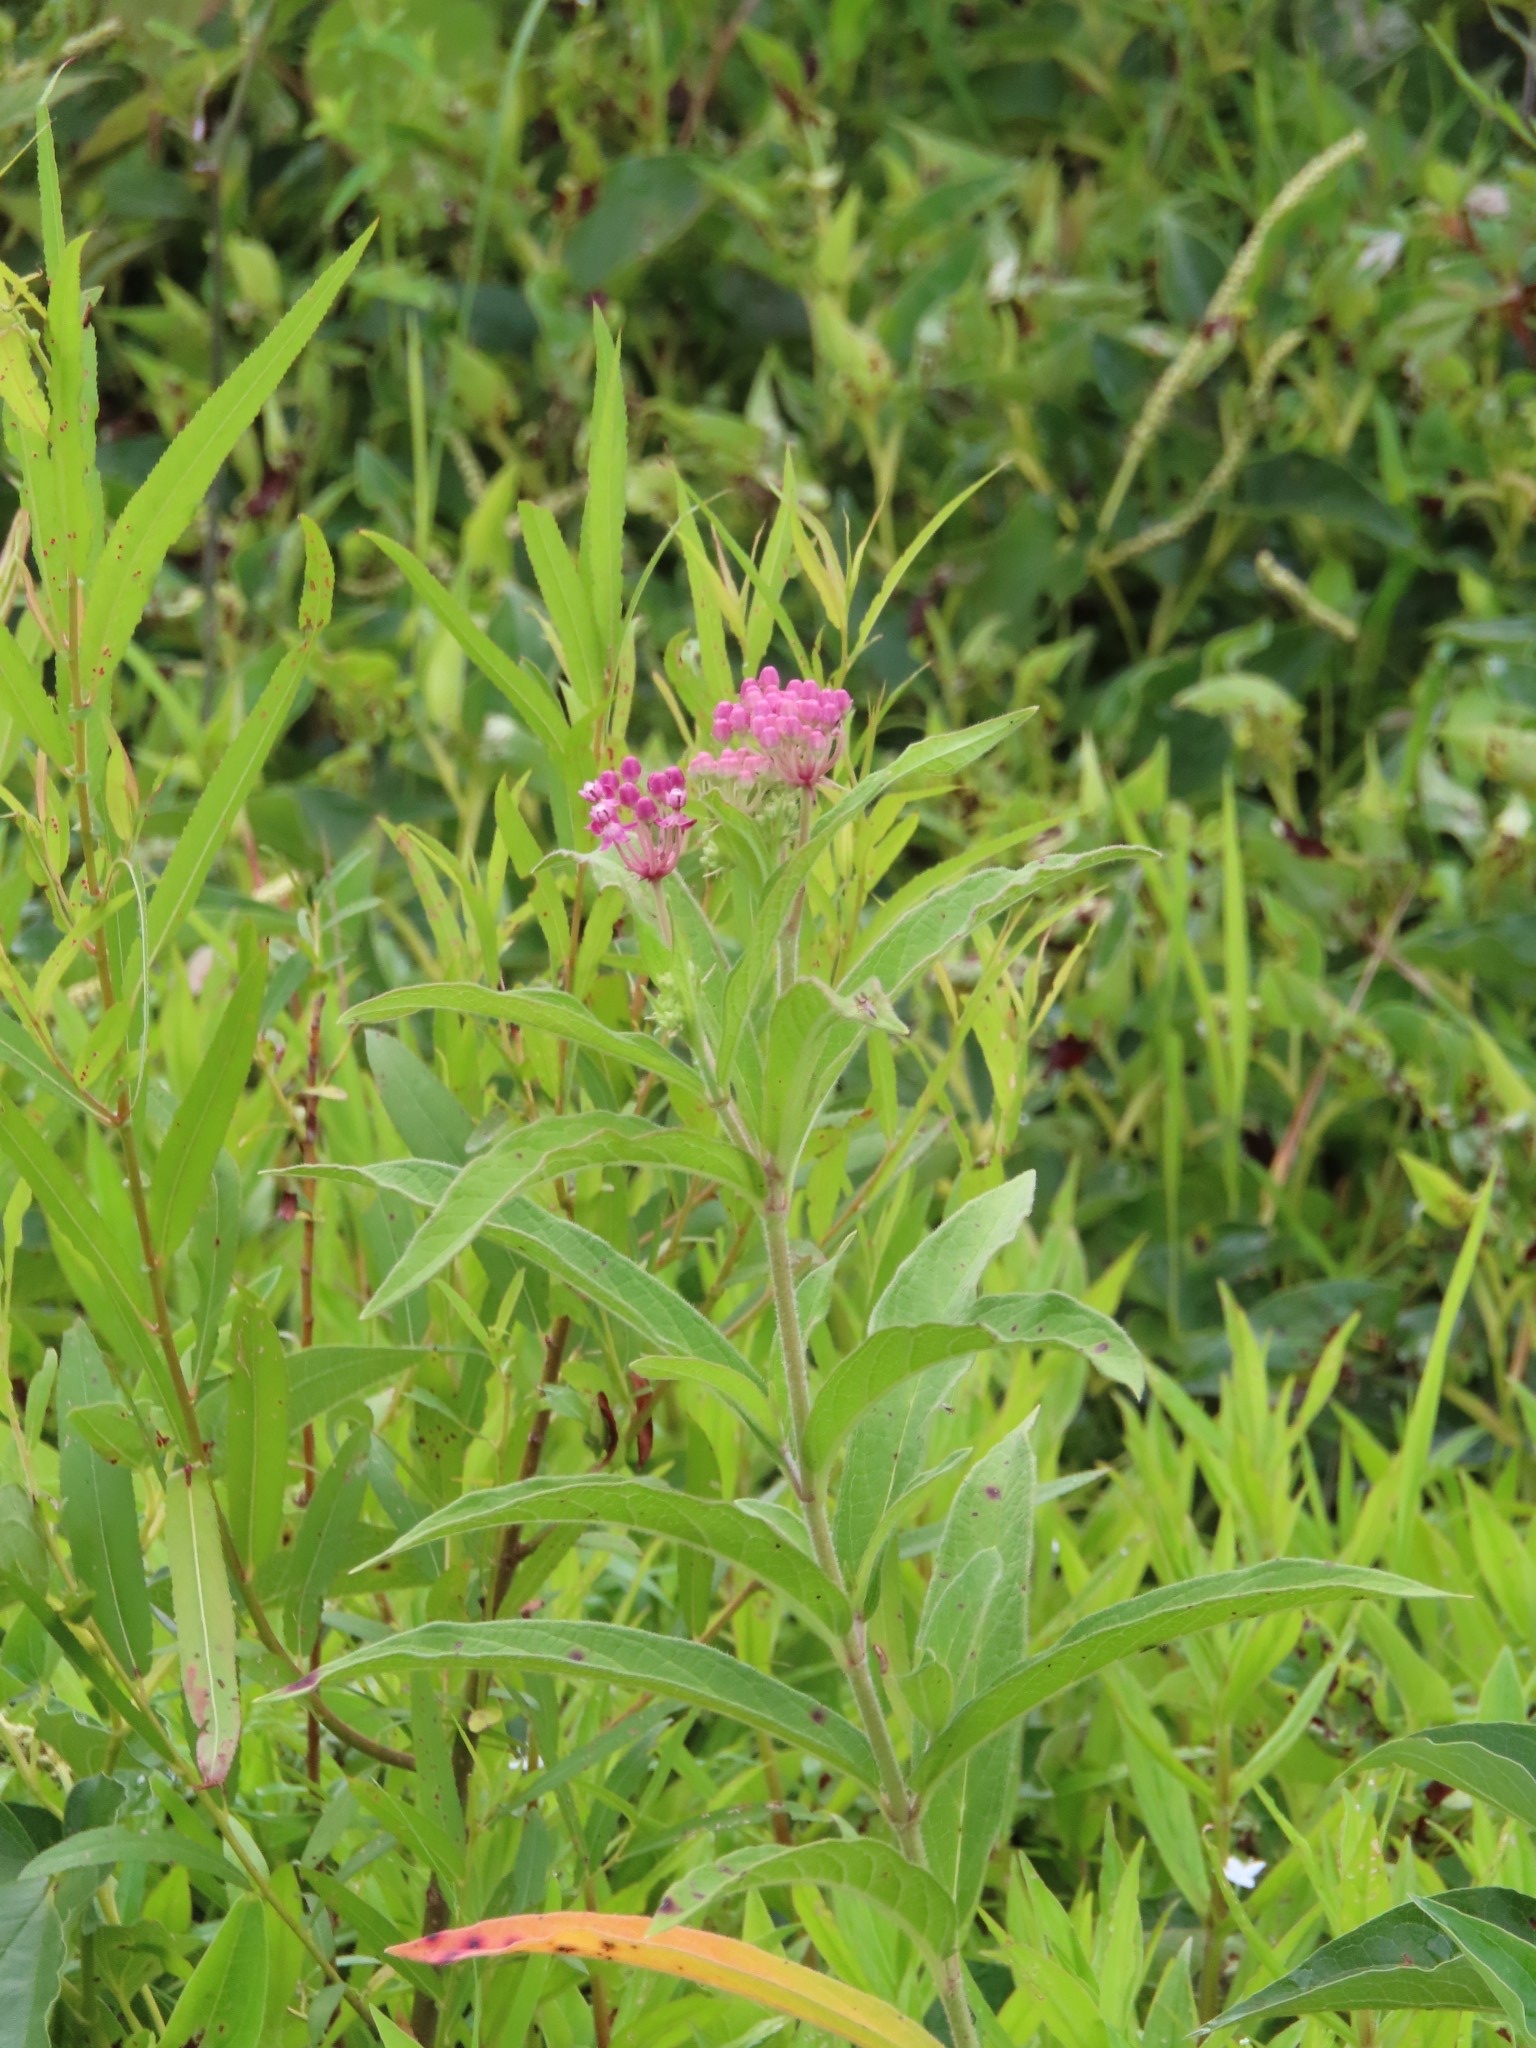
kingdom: Plantae
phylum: Tracheophyta
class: Magnoliopsida
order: Gentianales
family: Apocynaceae
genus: Asclepias
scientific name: Asclepias incarnata
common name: Swamp milkweed
